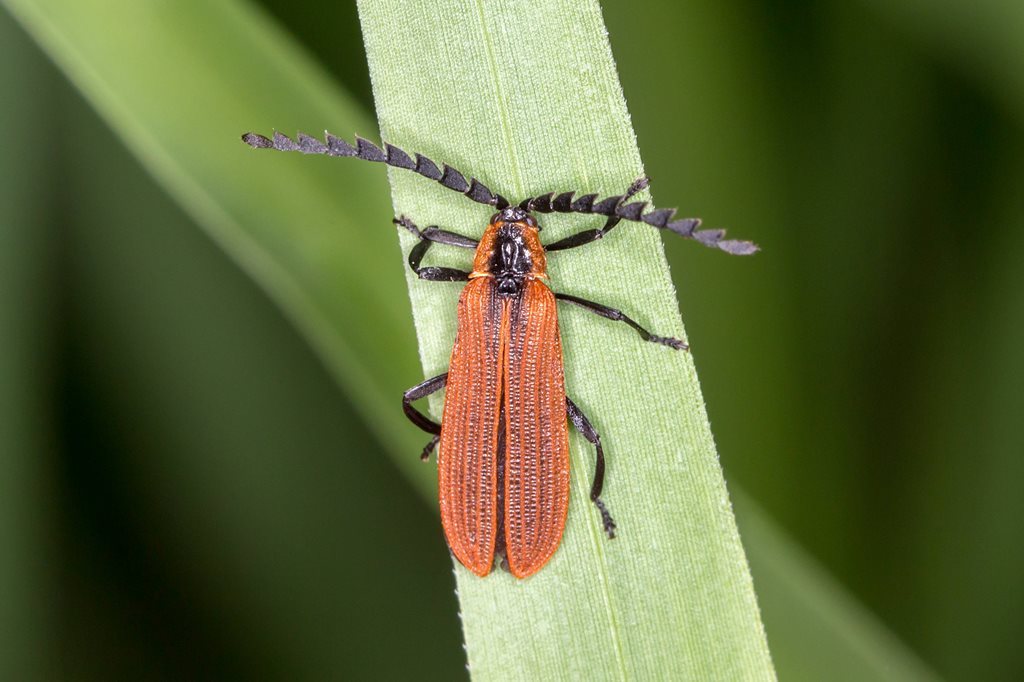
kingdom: Animalia
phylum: Arthropoda
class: Insecta
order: Coleoptera
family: Lycidae
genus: Trichalus
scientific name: Trichalus
